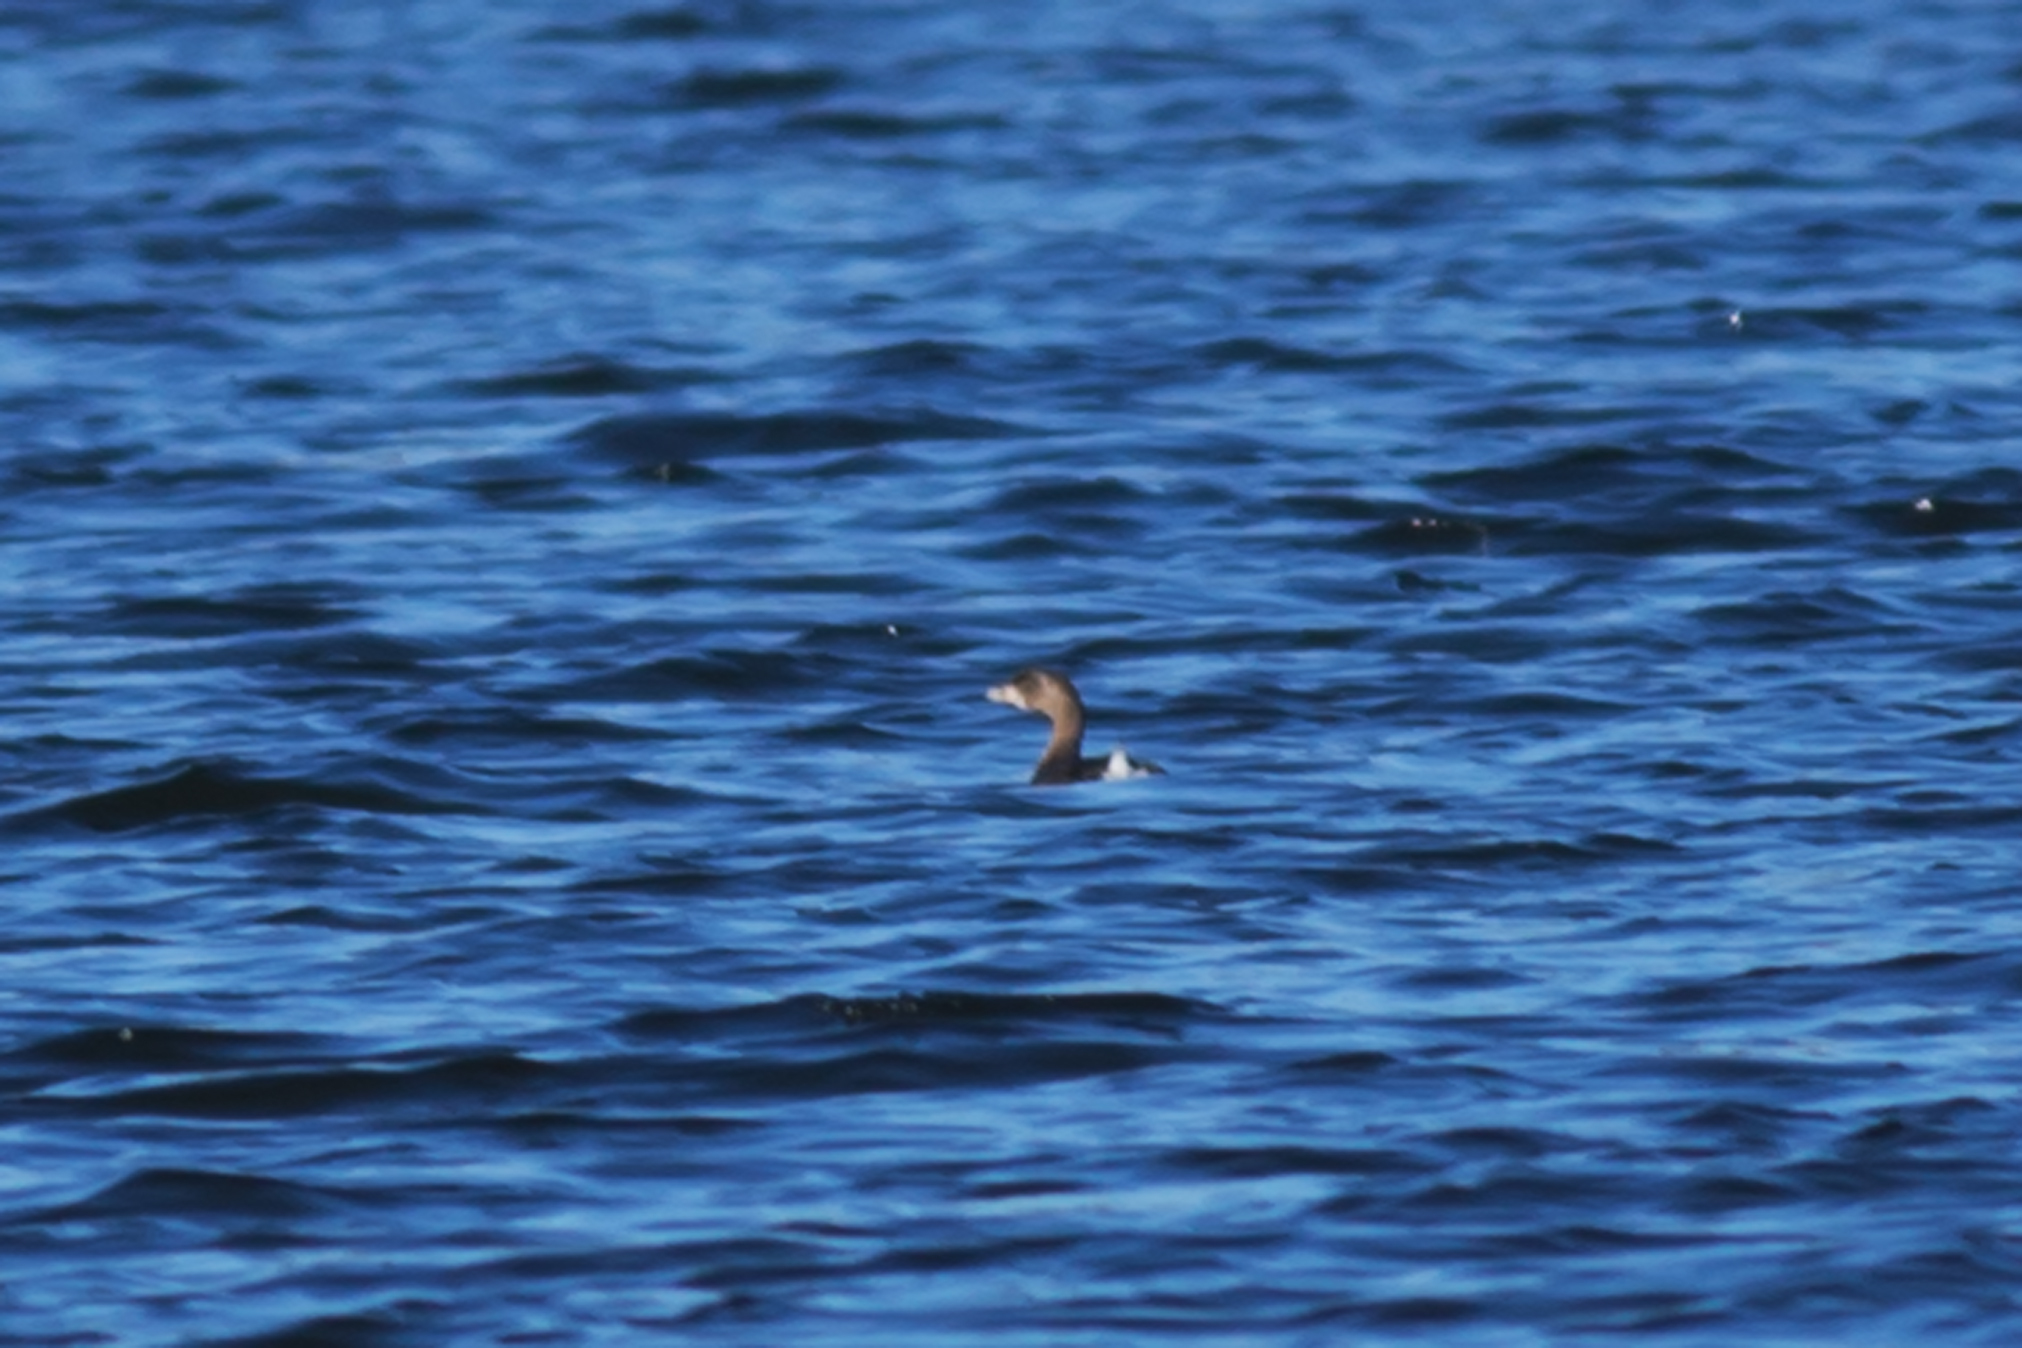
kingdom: Animalia
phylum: Chordata
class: Aves
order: Podicipediformes
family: Podicipedidae
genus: Podilymbus
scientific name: Podilymbus podiceps
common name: Pied-billed grebe
